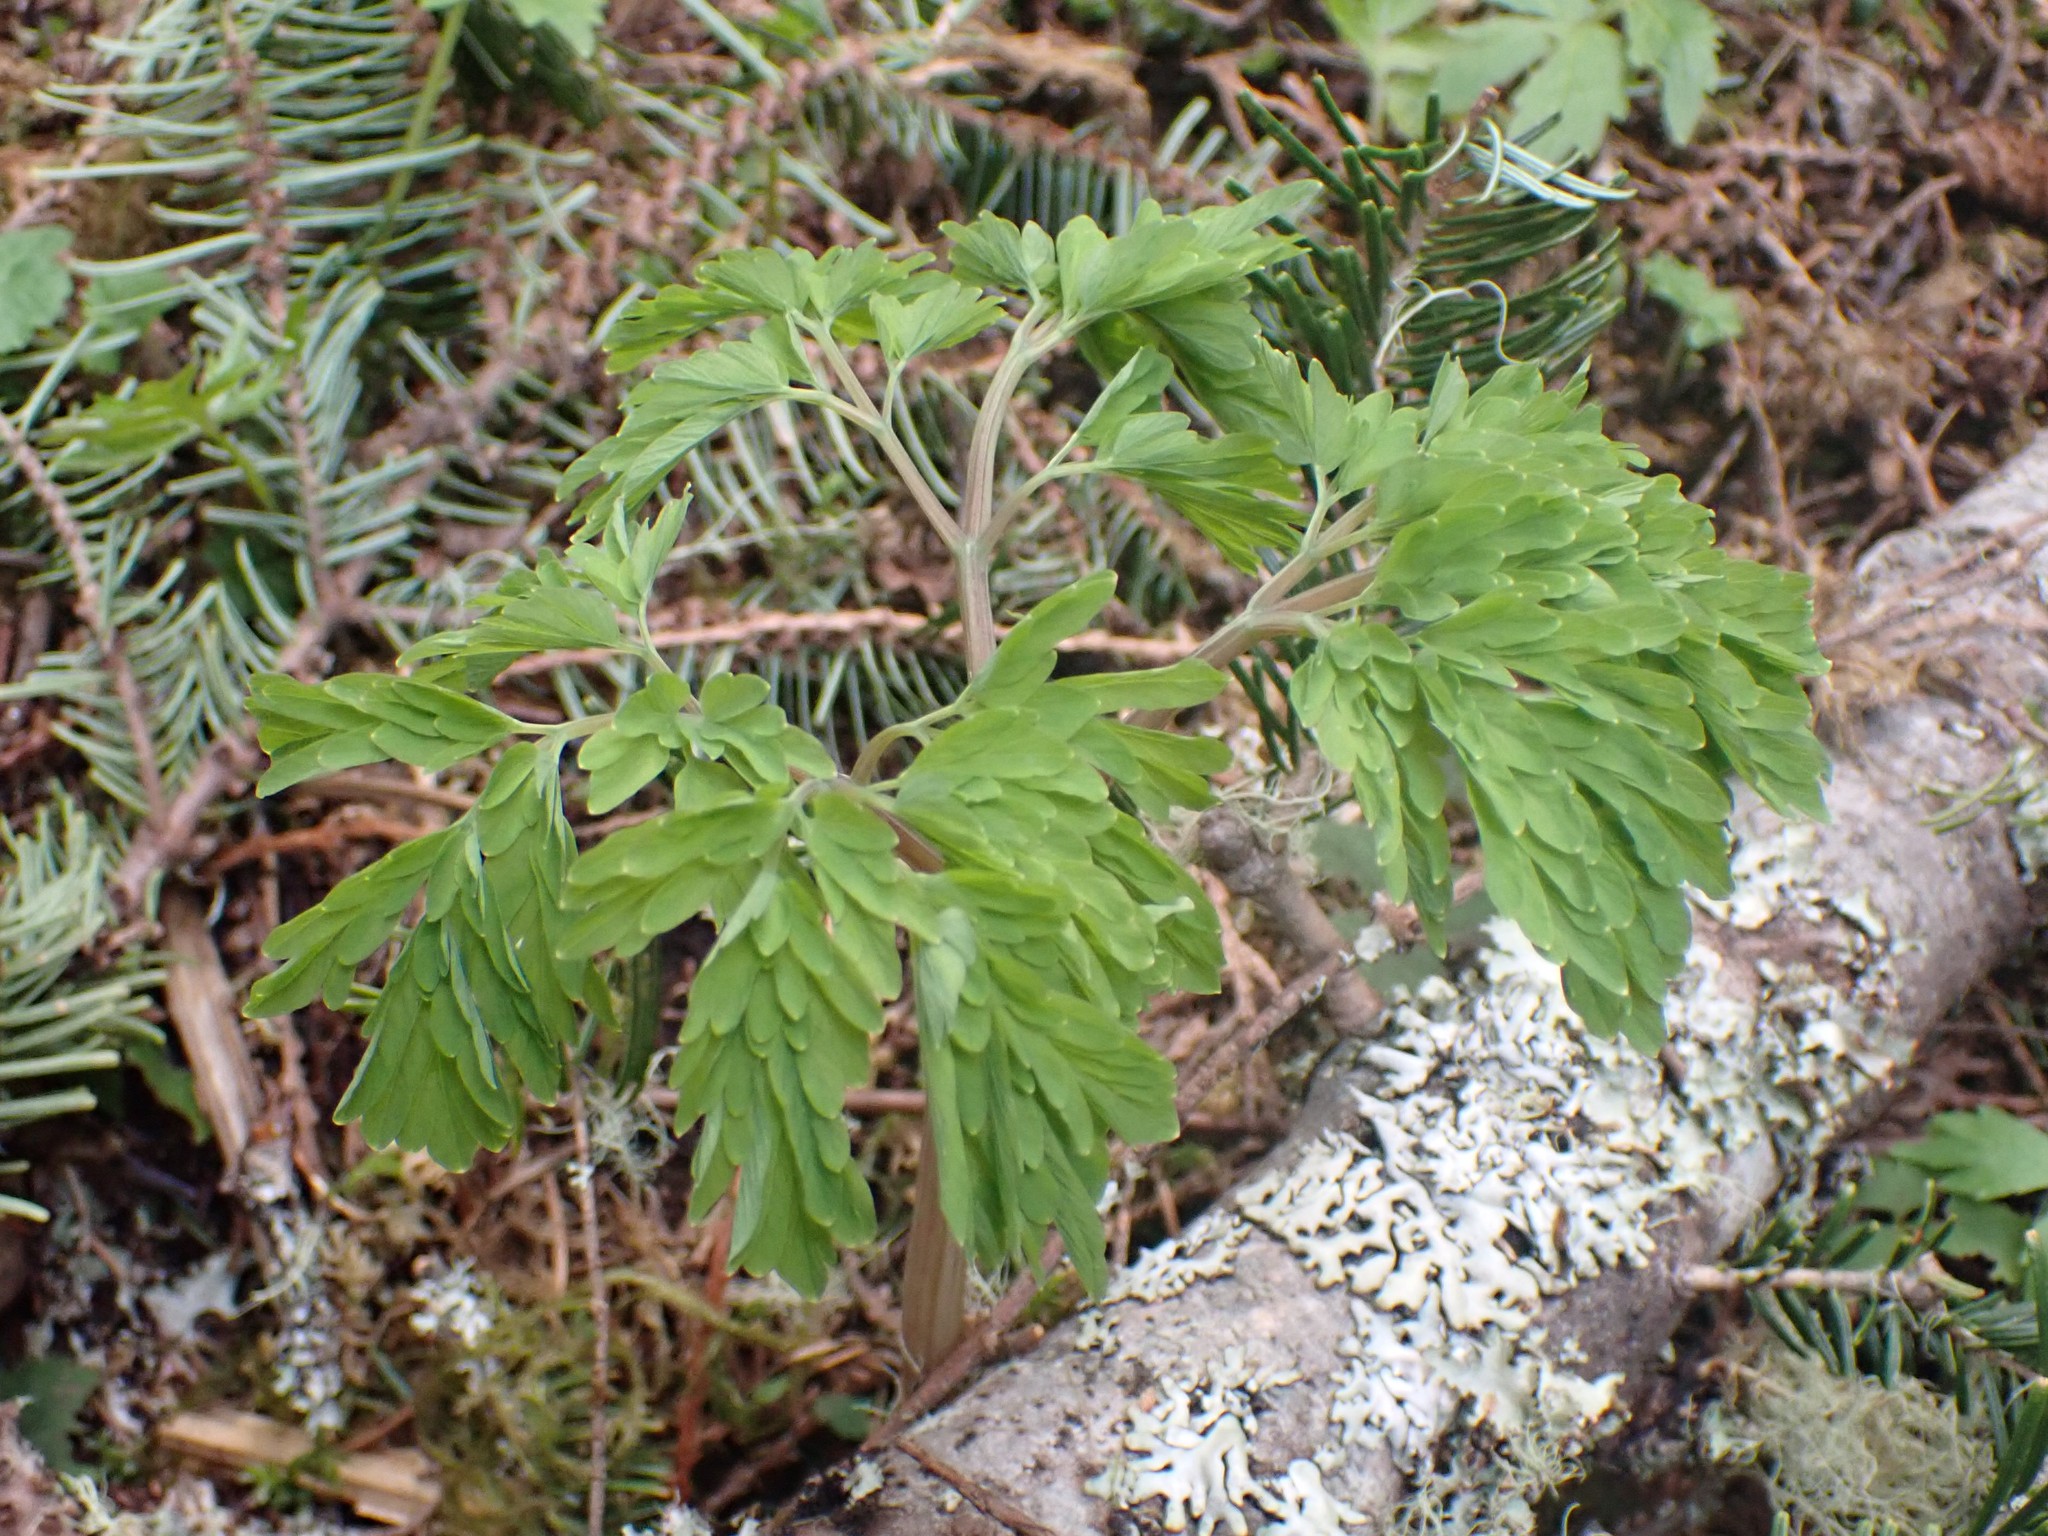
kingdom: Plantae
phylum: Tracheophyta
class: Magnoliopsida
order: Ranunculales
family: Papaveraceae
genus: Corydalis
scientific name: Corydalis scouleri
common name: Scouler's corydalis
